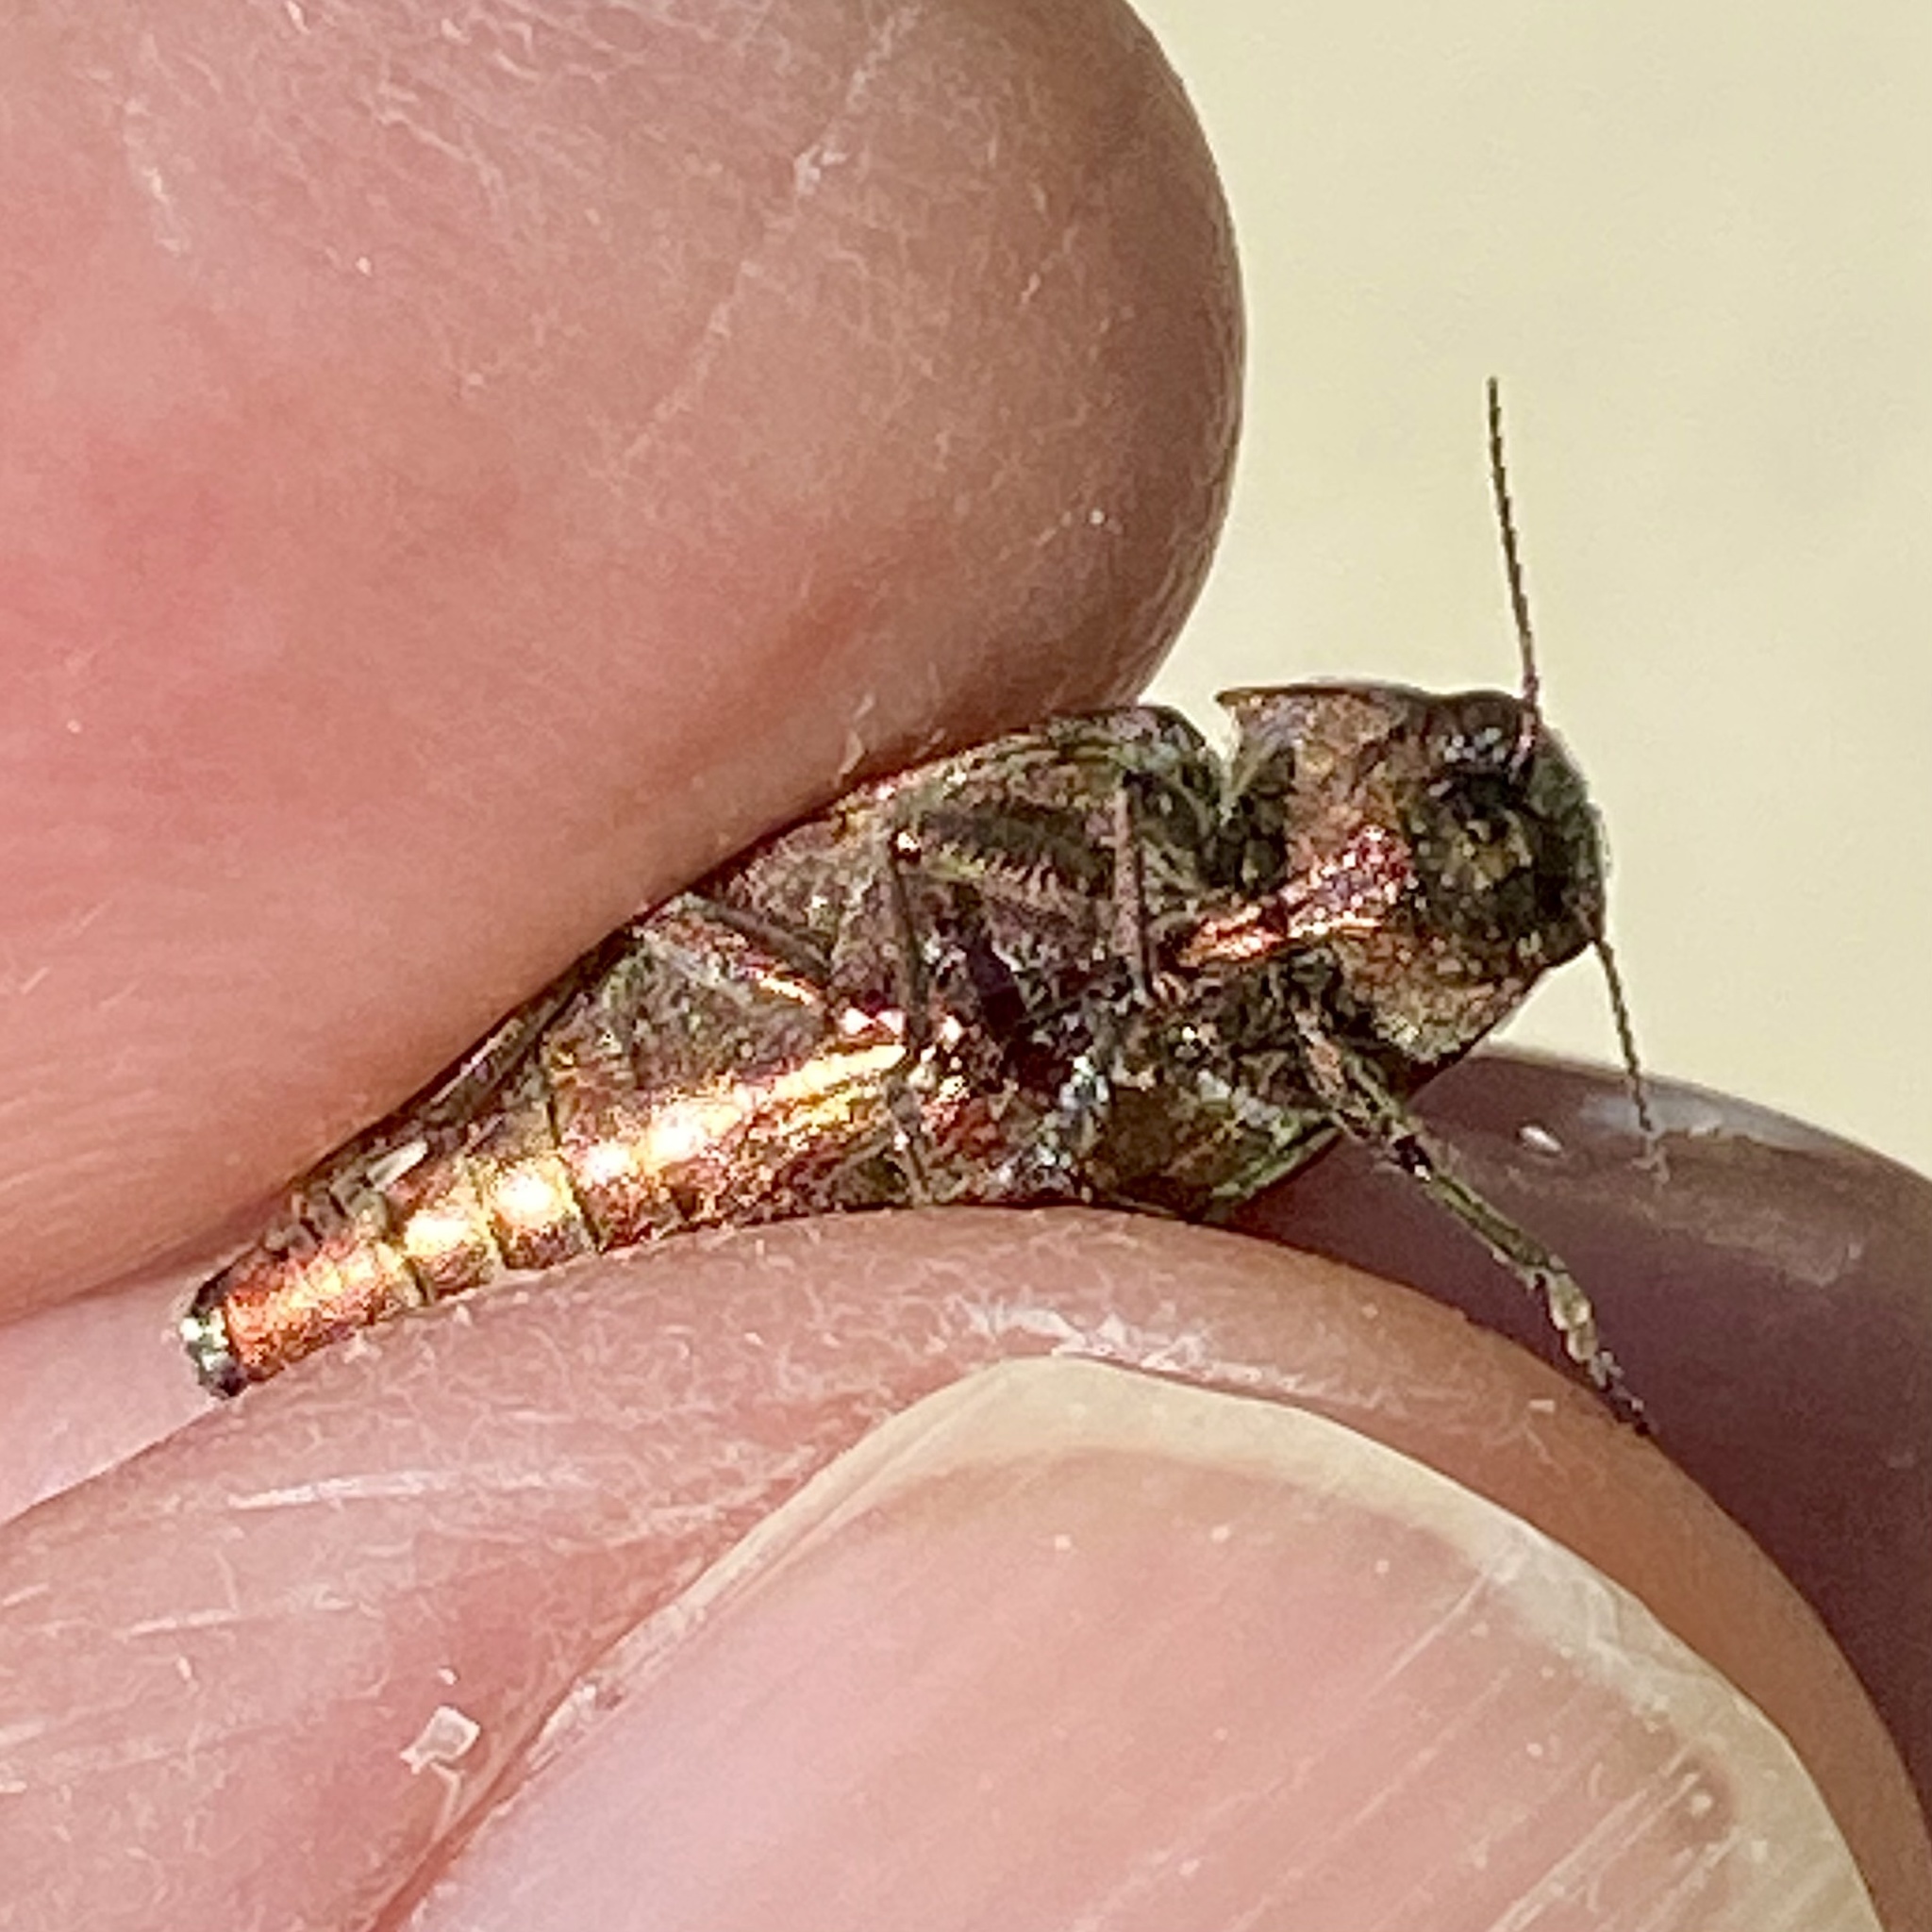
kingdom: Animalia
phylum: Arthropoda
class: Insecta
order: Coleoptera
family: Buprestidae
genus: Buprestis
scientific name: Buprestis striata
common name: Striated jewel beetle
